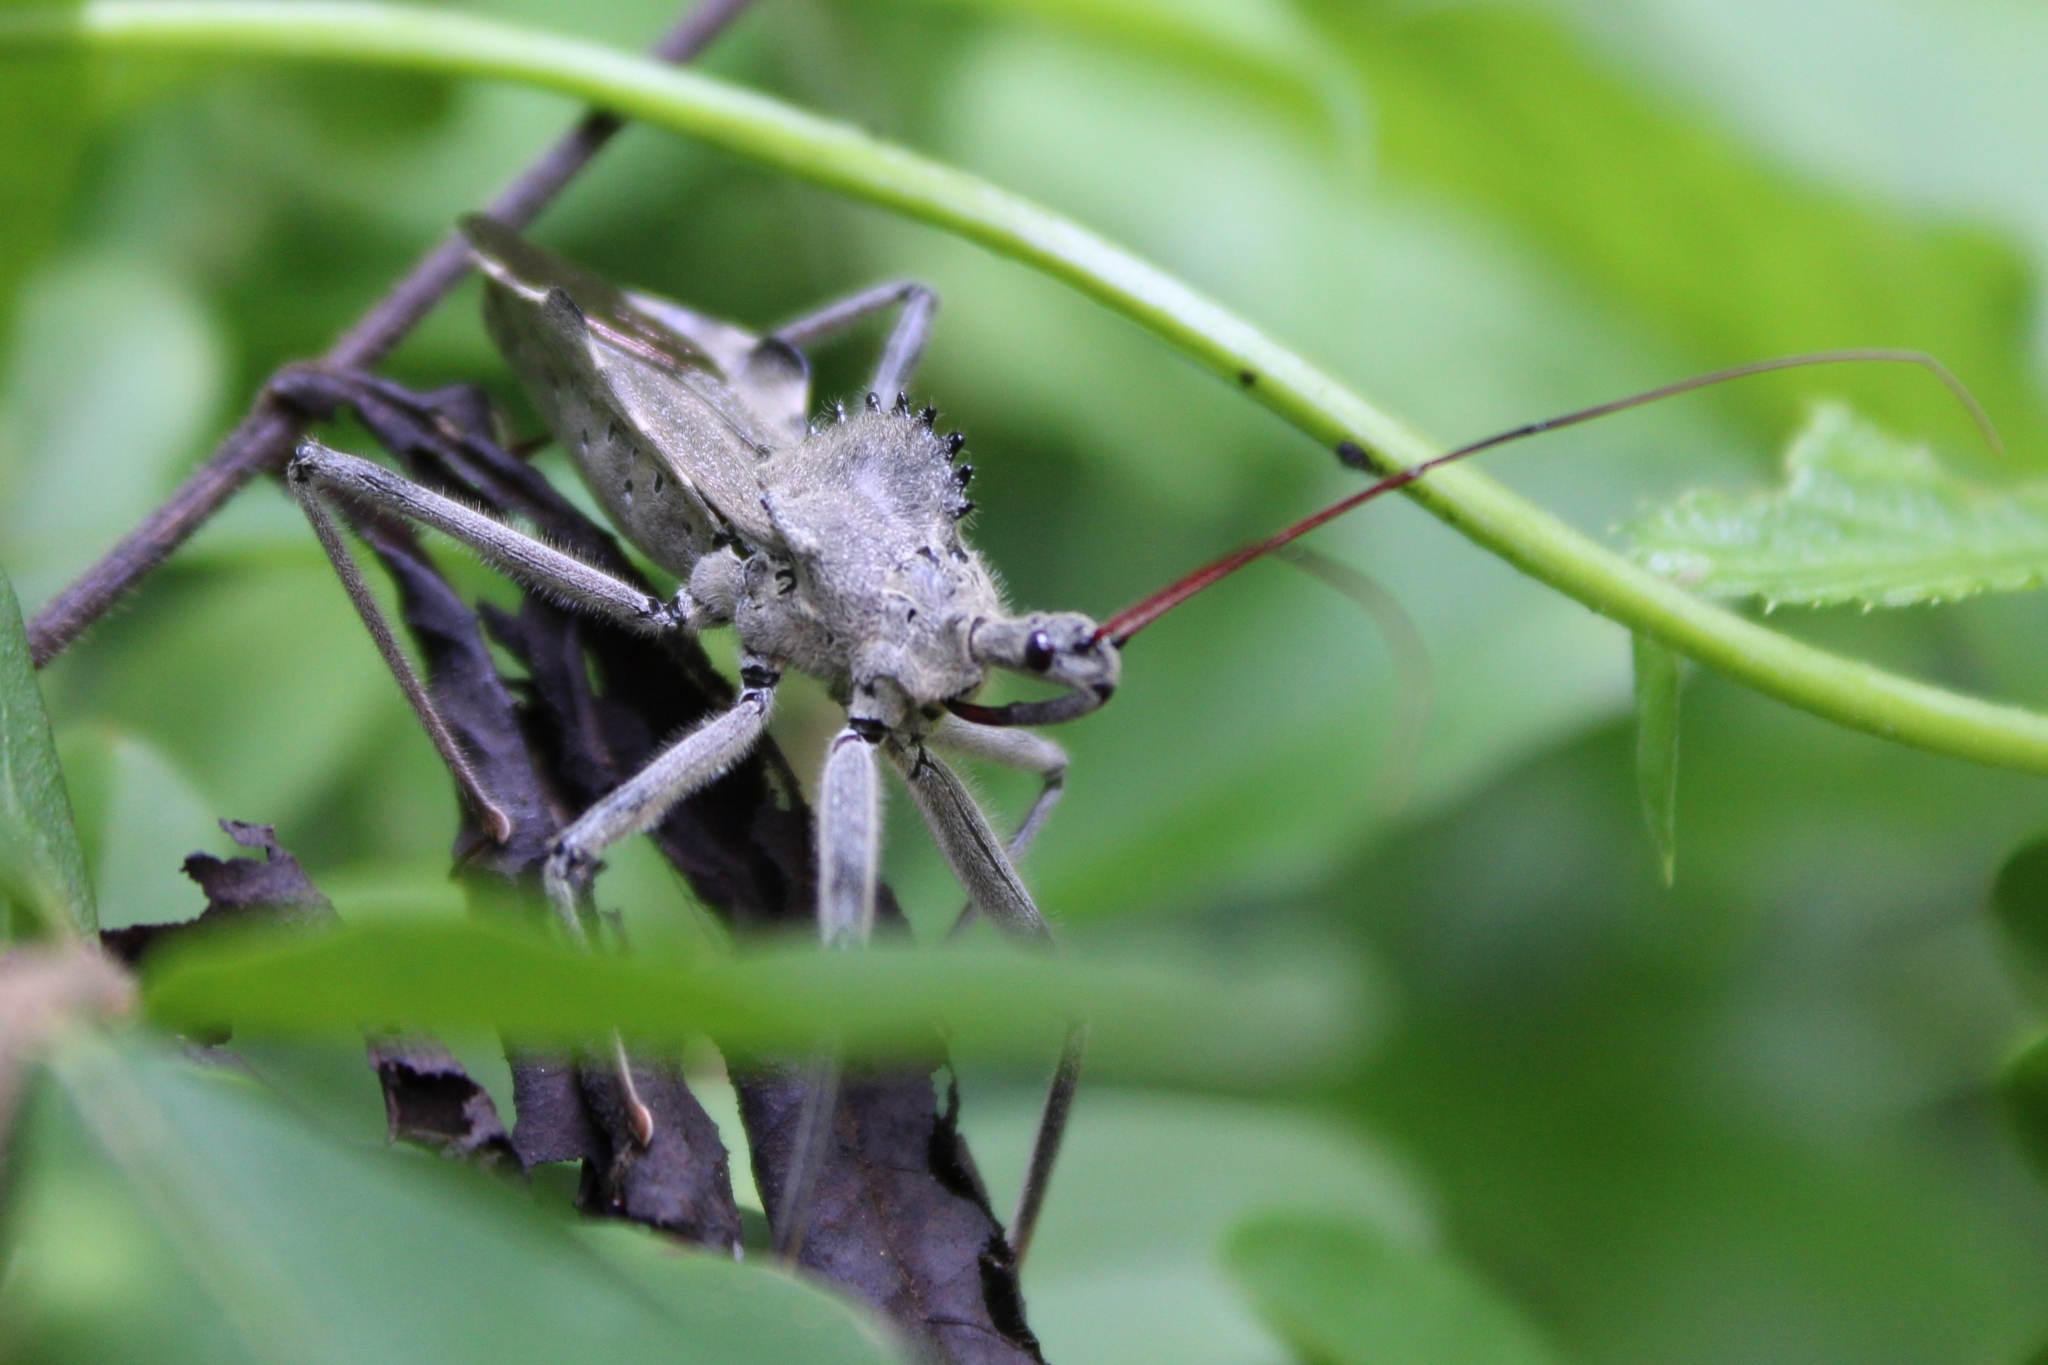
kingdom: Animalia
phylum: Arthropoda
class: Insecta
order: Hemiptera
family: Reduviidae
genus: Arilus
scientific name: Arilus cristatus
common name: North american wheel bug
